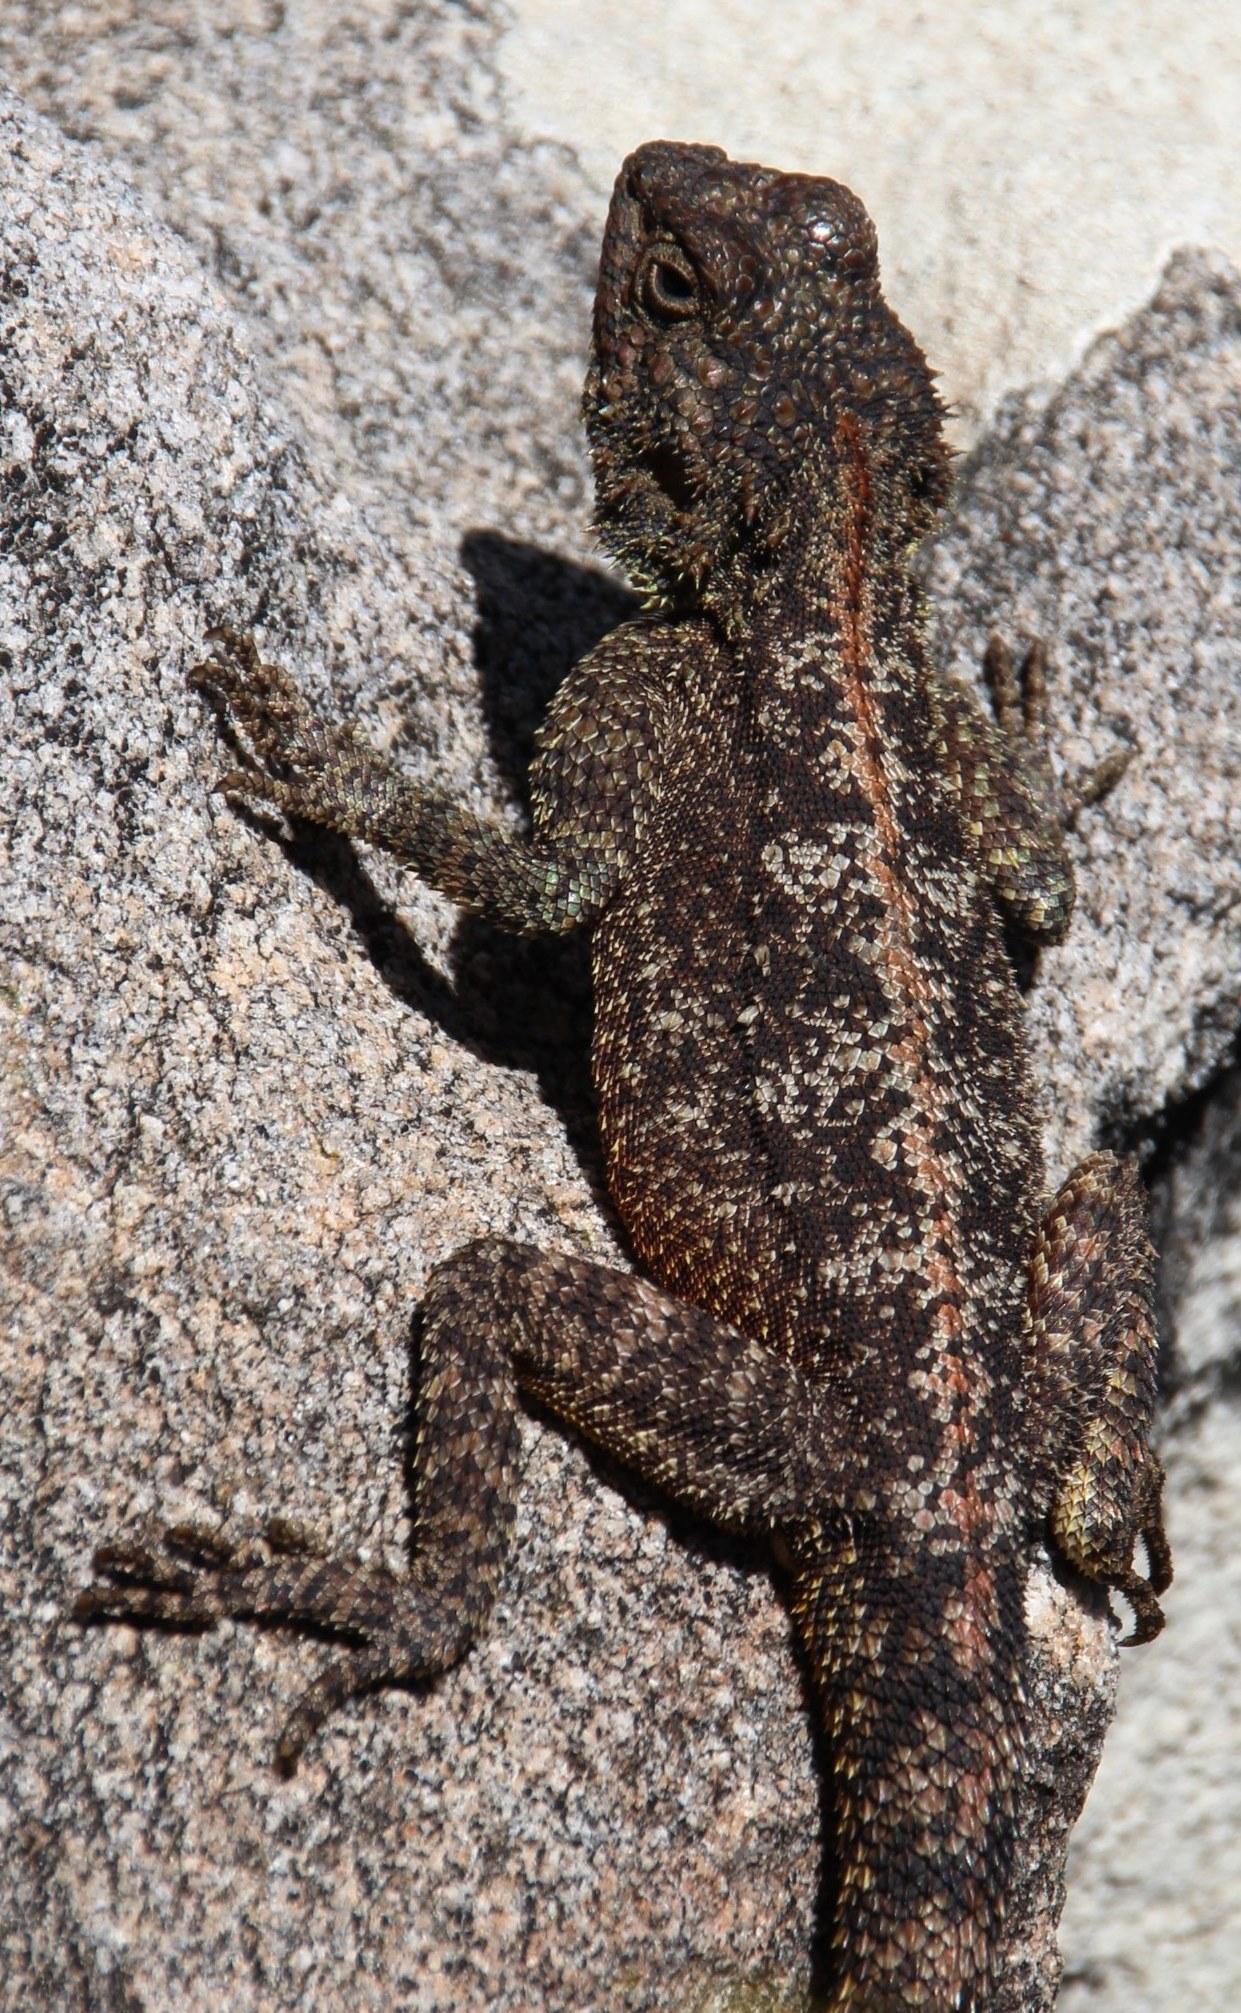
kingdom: Animalia
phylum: Chordata
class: Squamata
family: Agamidae
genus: Agama
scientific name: Agama atra
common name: Southern african rock agama
